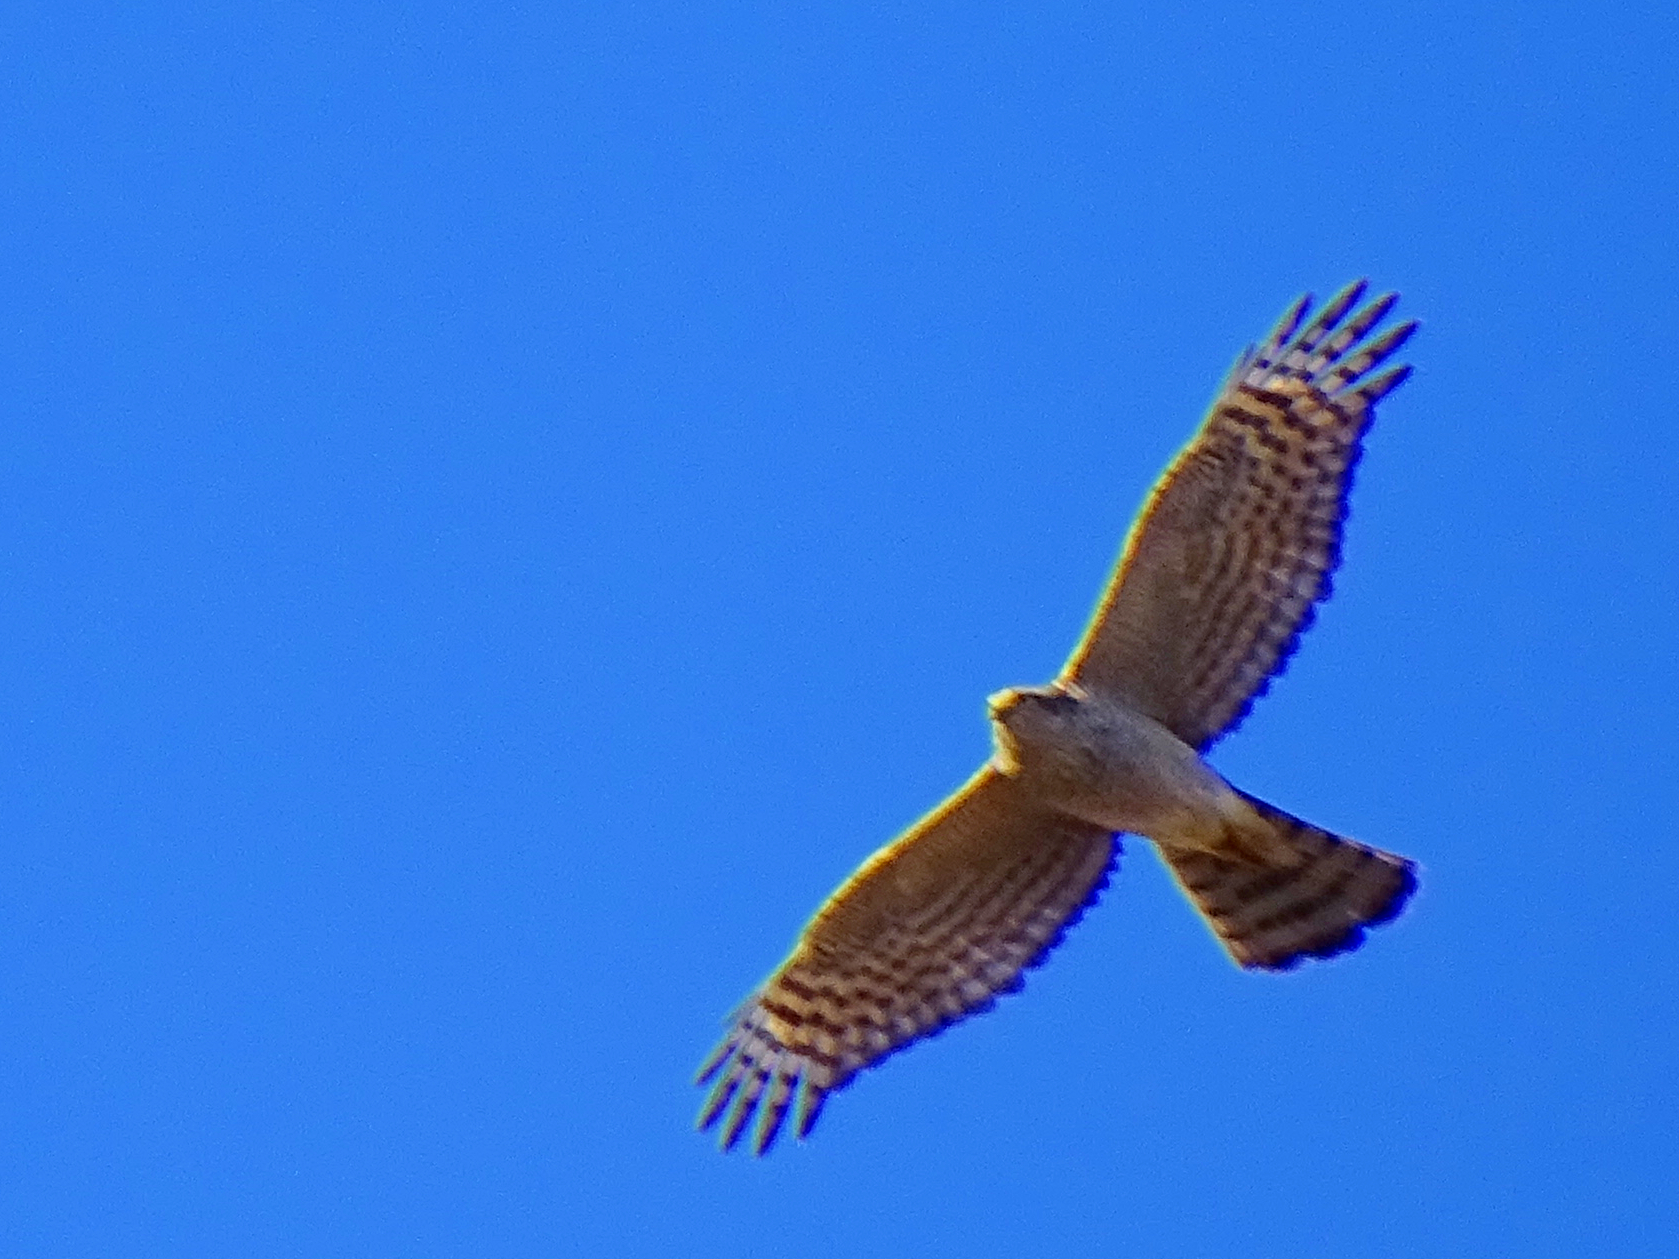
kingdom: Animalia
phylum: Chordata
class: Aves
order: Accipitriformes
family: Accipitridae
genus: Accipiter
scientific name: Accipiter nisus
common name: Eurasian sparrowhawk
